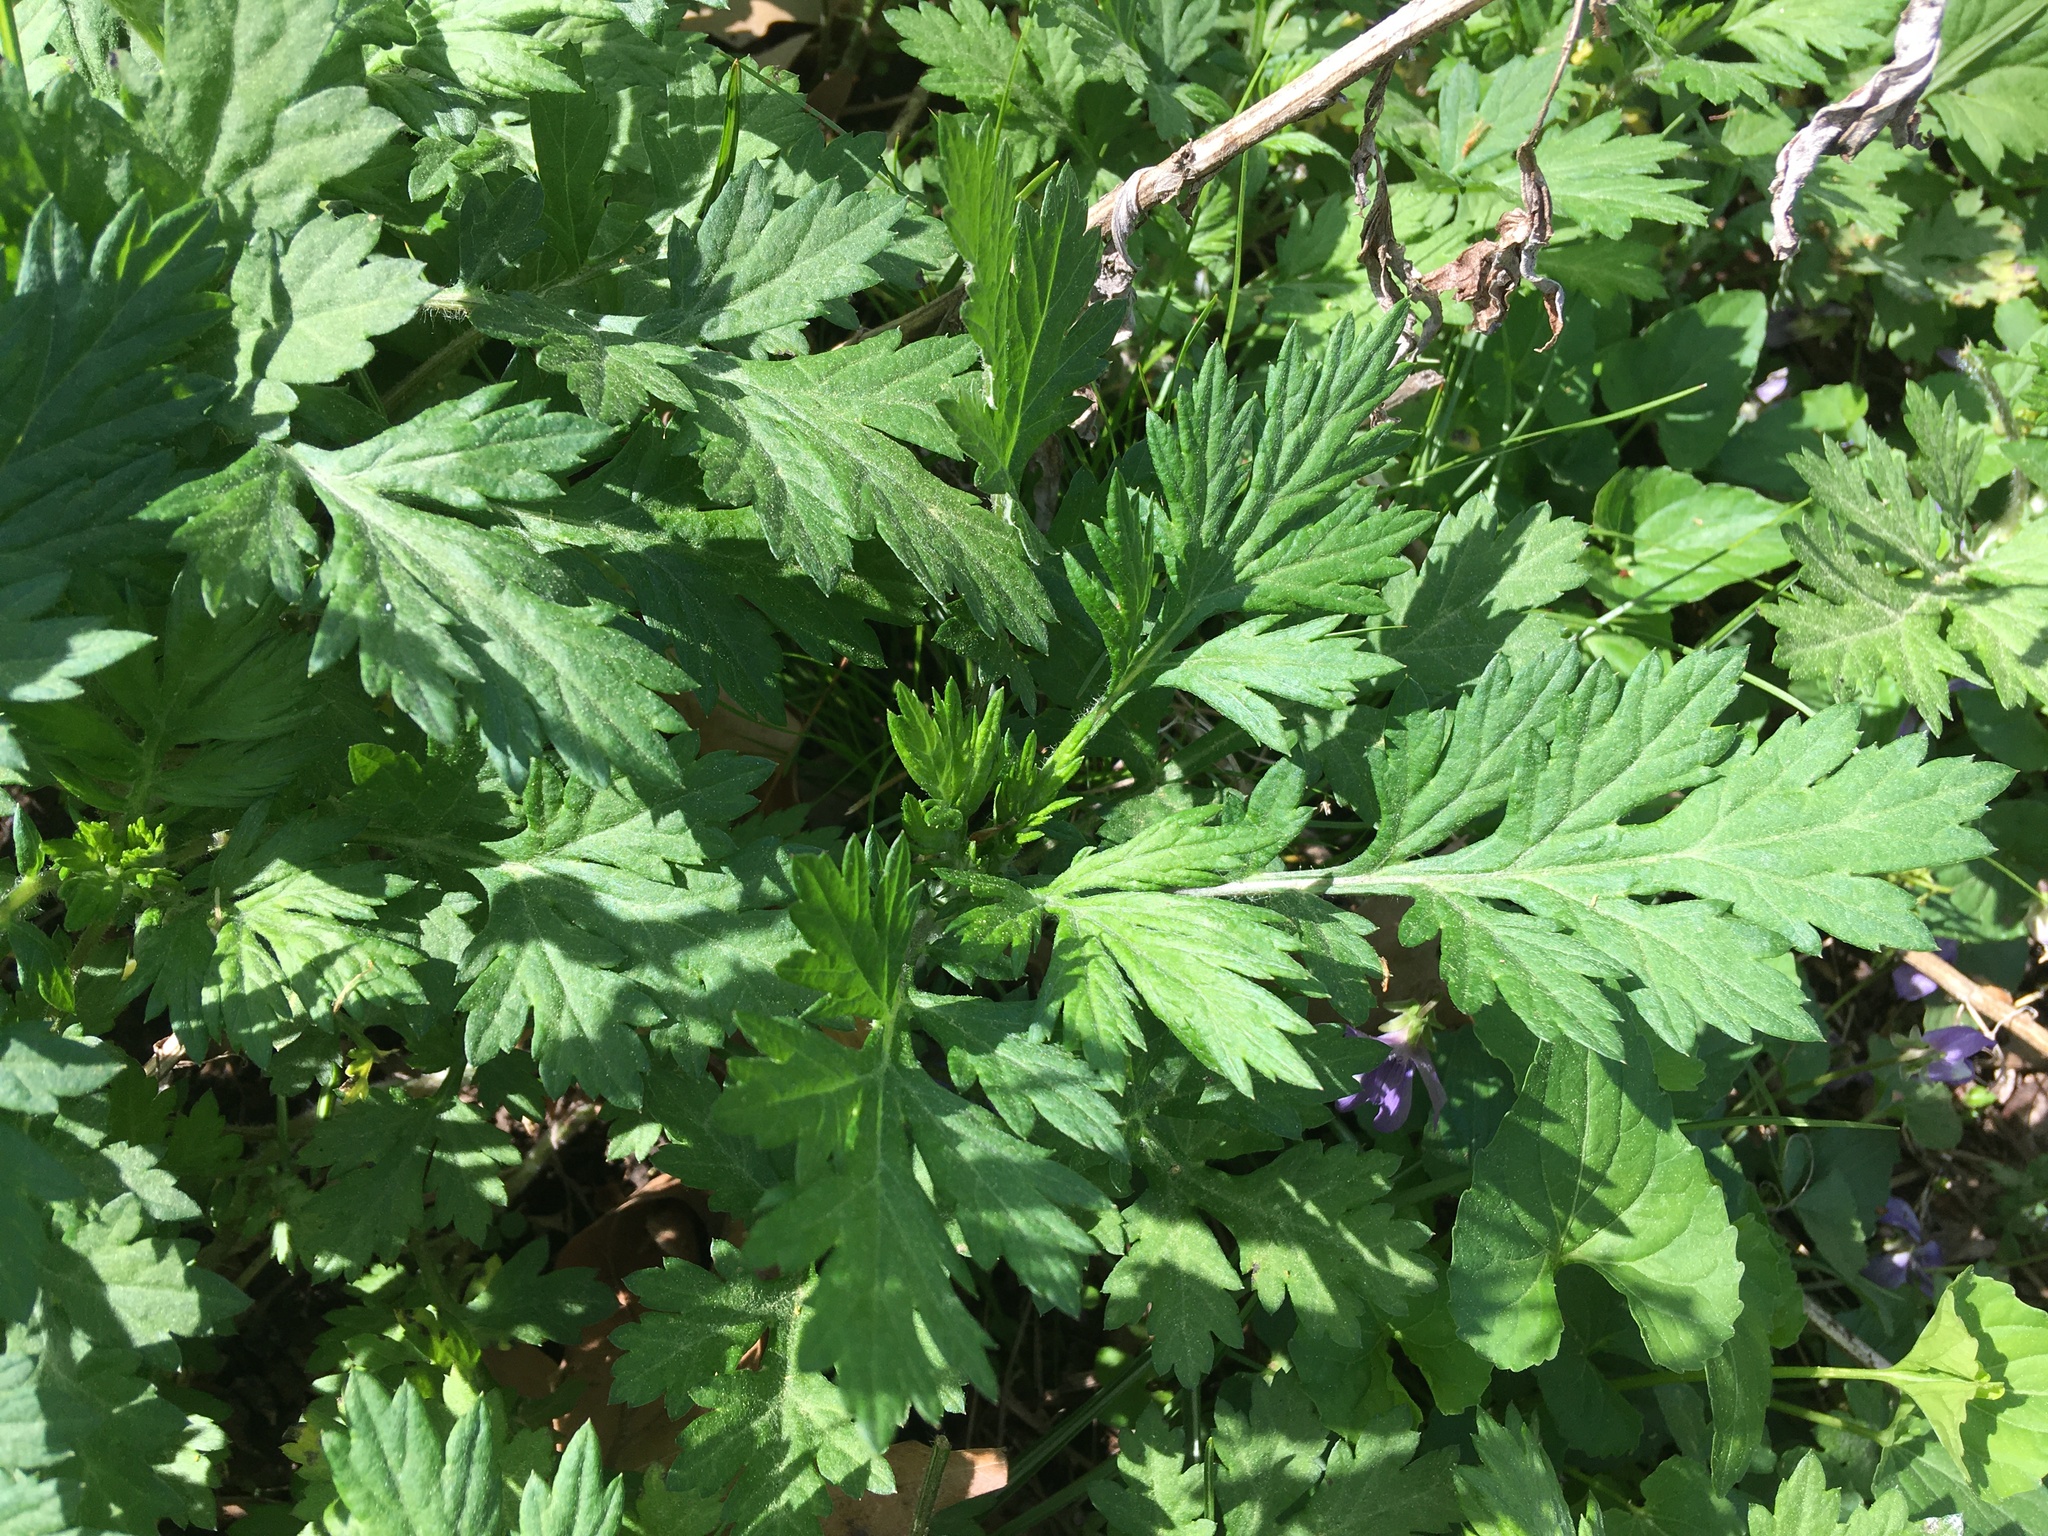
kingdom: Plantae
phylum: Tracheophyta
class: Magnoliopsida
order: Asterales
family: Asteraceae
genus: Artemisia
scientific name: Artemisia vulgaris
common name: Mugwort
